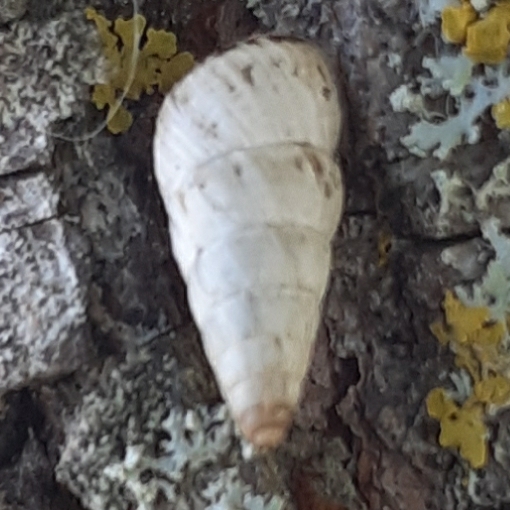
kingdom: Animalia
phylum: Mollusca
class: Gastropoda
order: Stylommatophora
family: Geomitridae
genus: Cochlicella
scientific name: Cochlicella acuta
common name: Pointed snail
